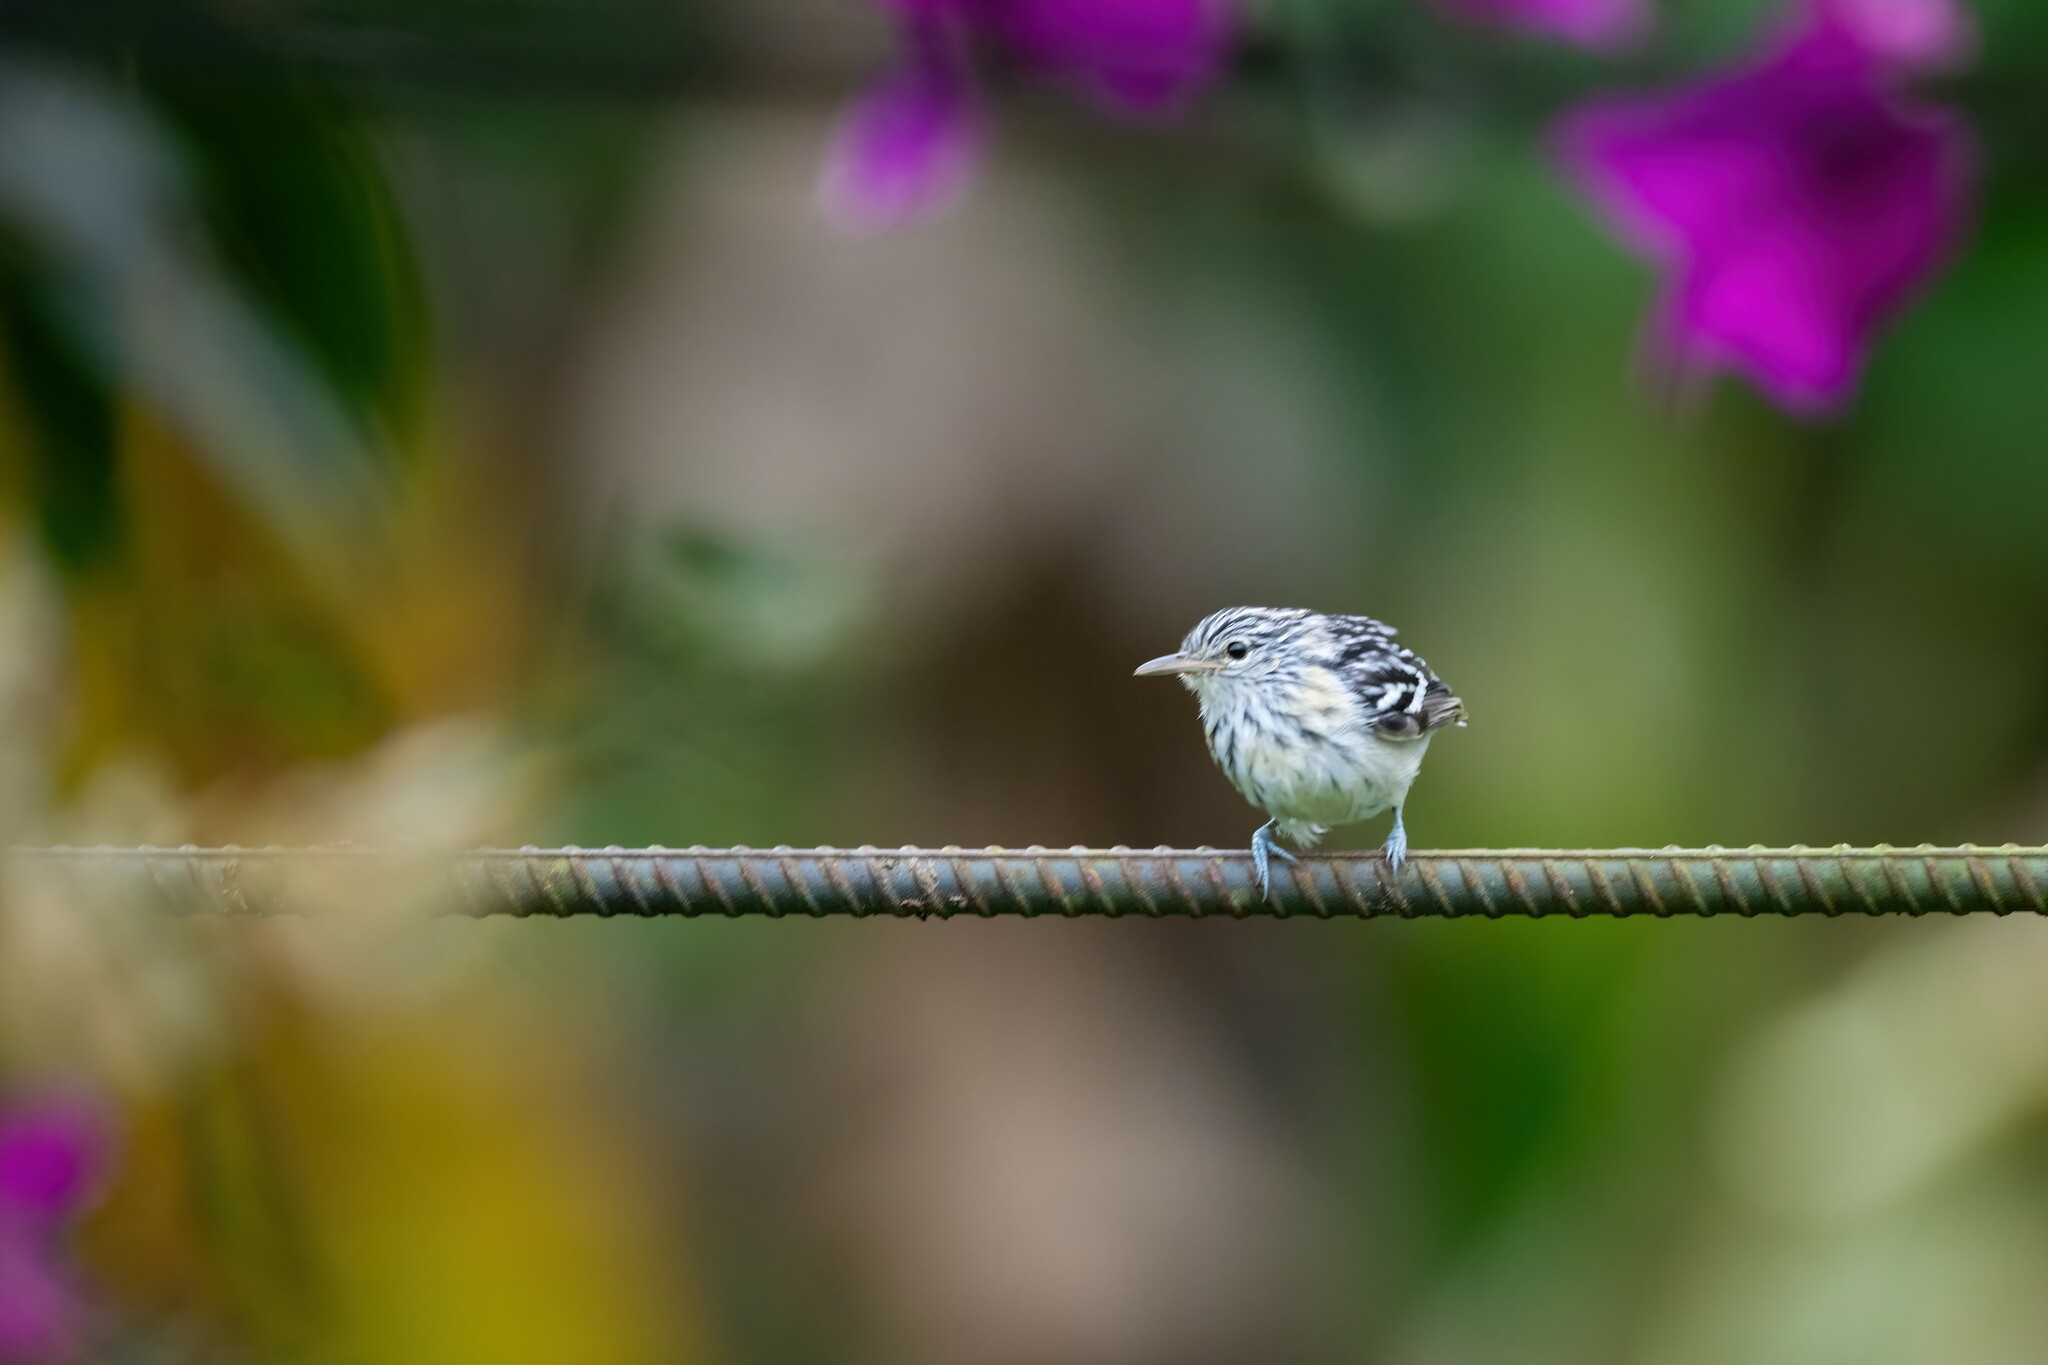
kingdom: Animalia
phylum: Chordata
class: Aves
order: Passeriformes
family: Thamnophilidae
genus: Myrmotherula
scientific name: Myrmotherula pacifica
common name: Pacific antwren
